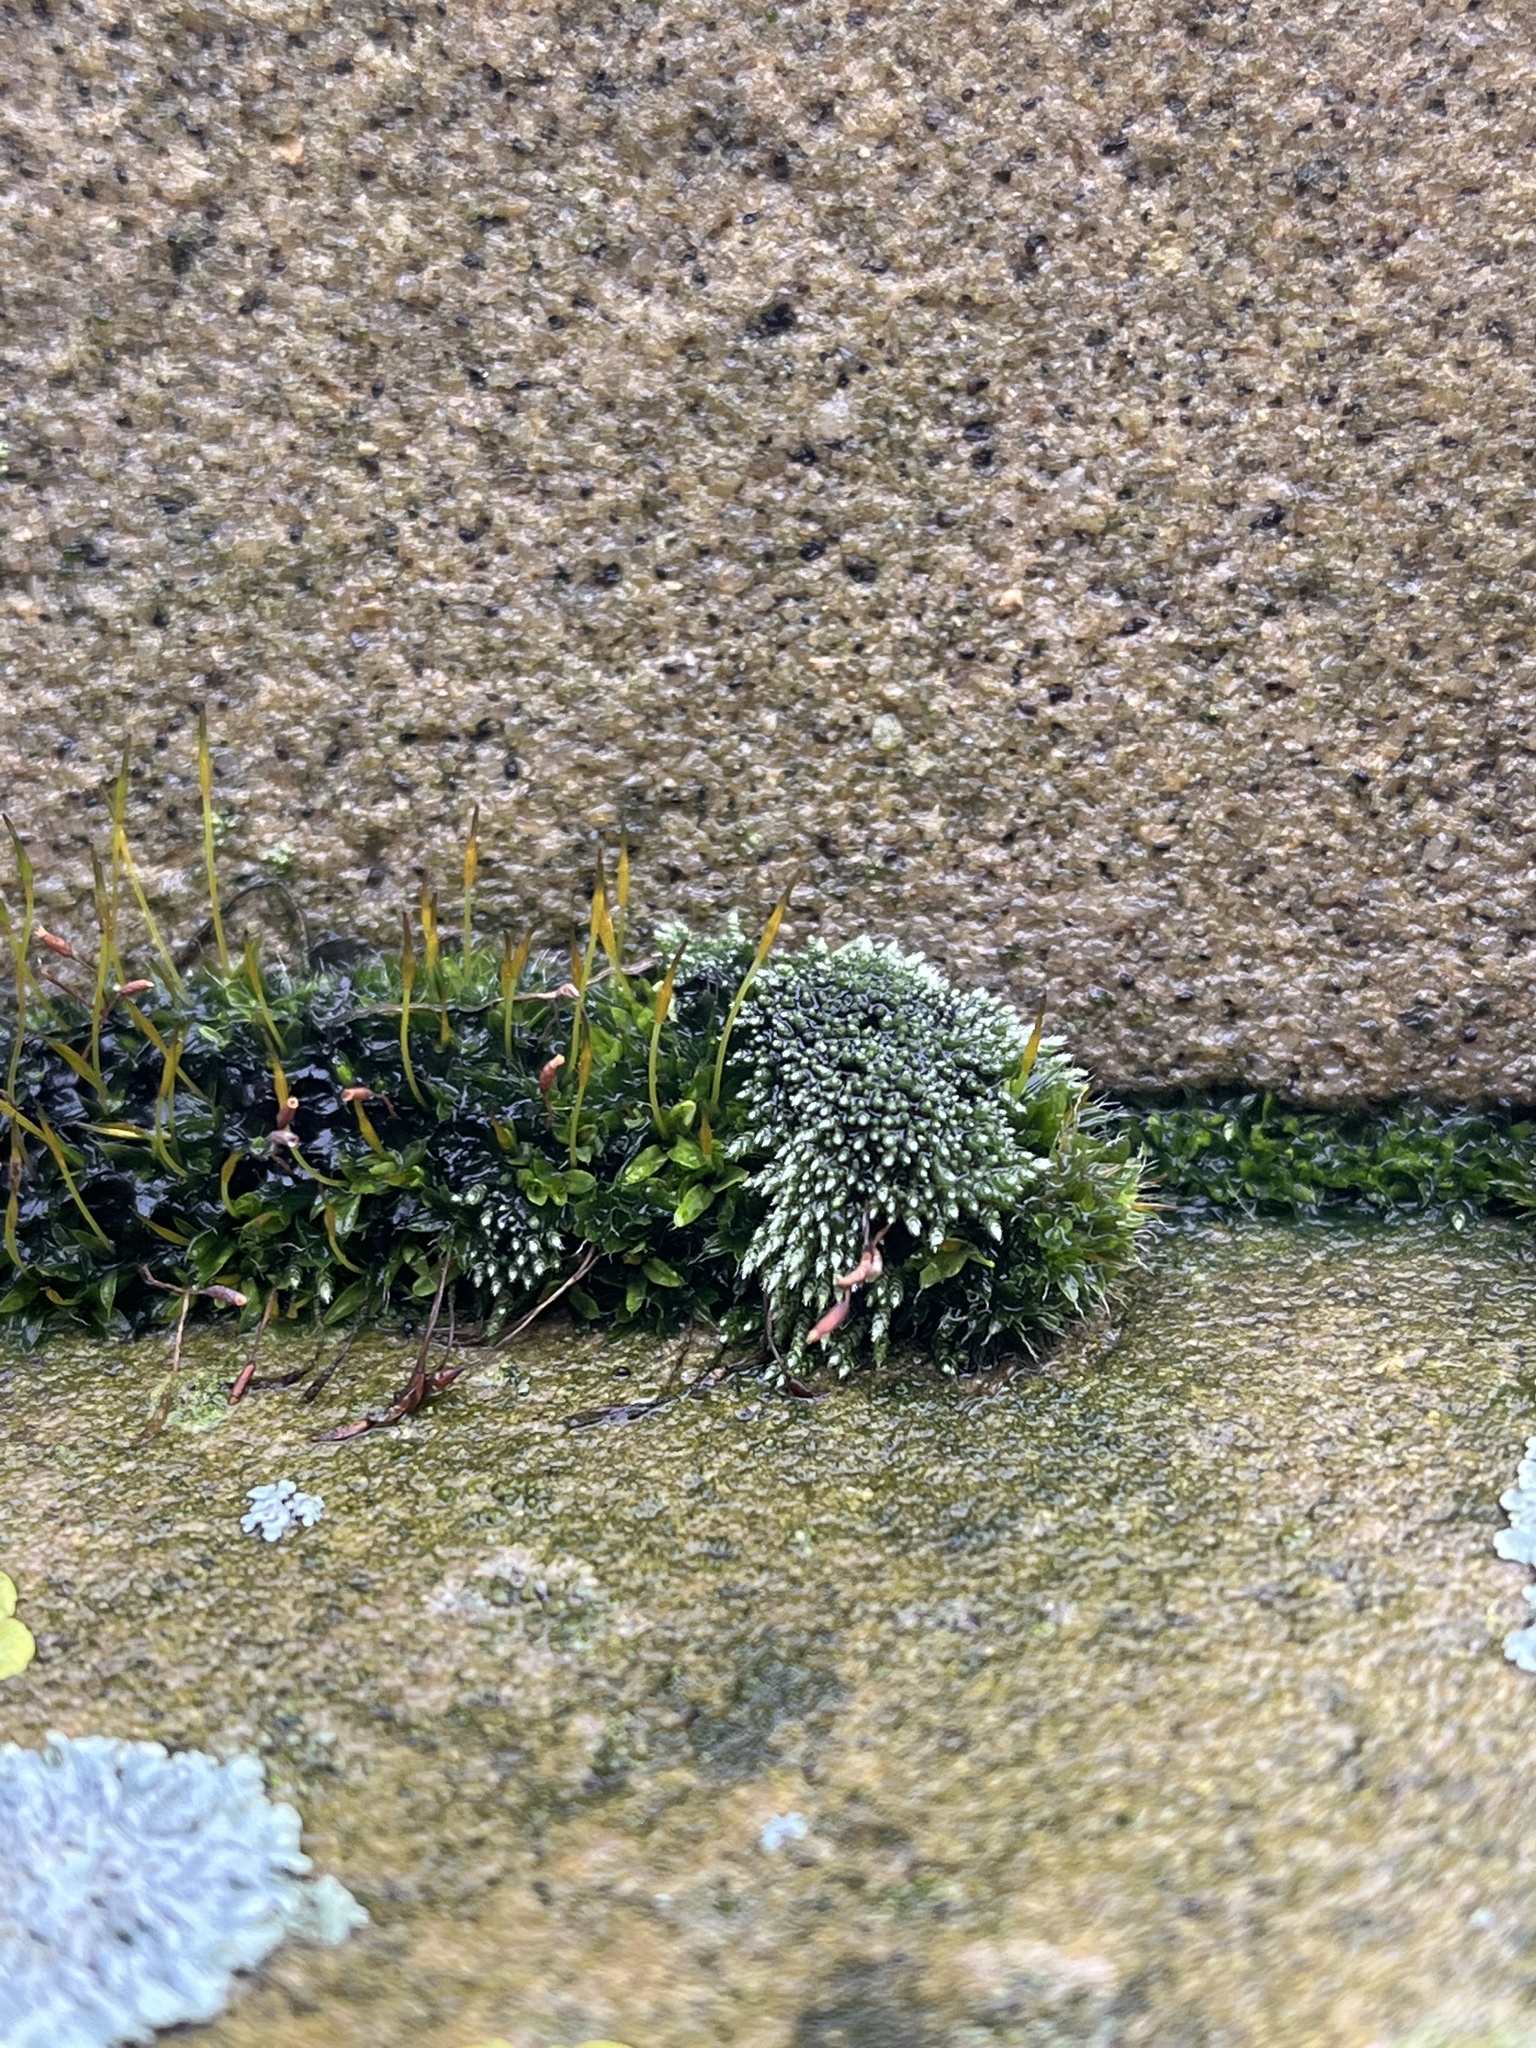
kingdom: Plantae
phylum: Bryophyta
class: Bryopsida
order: Bryales
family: Bryaceae
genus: Bryum
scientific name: Bryum argenteum
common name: Silver-moss
